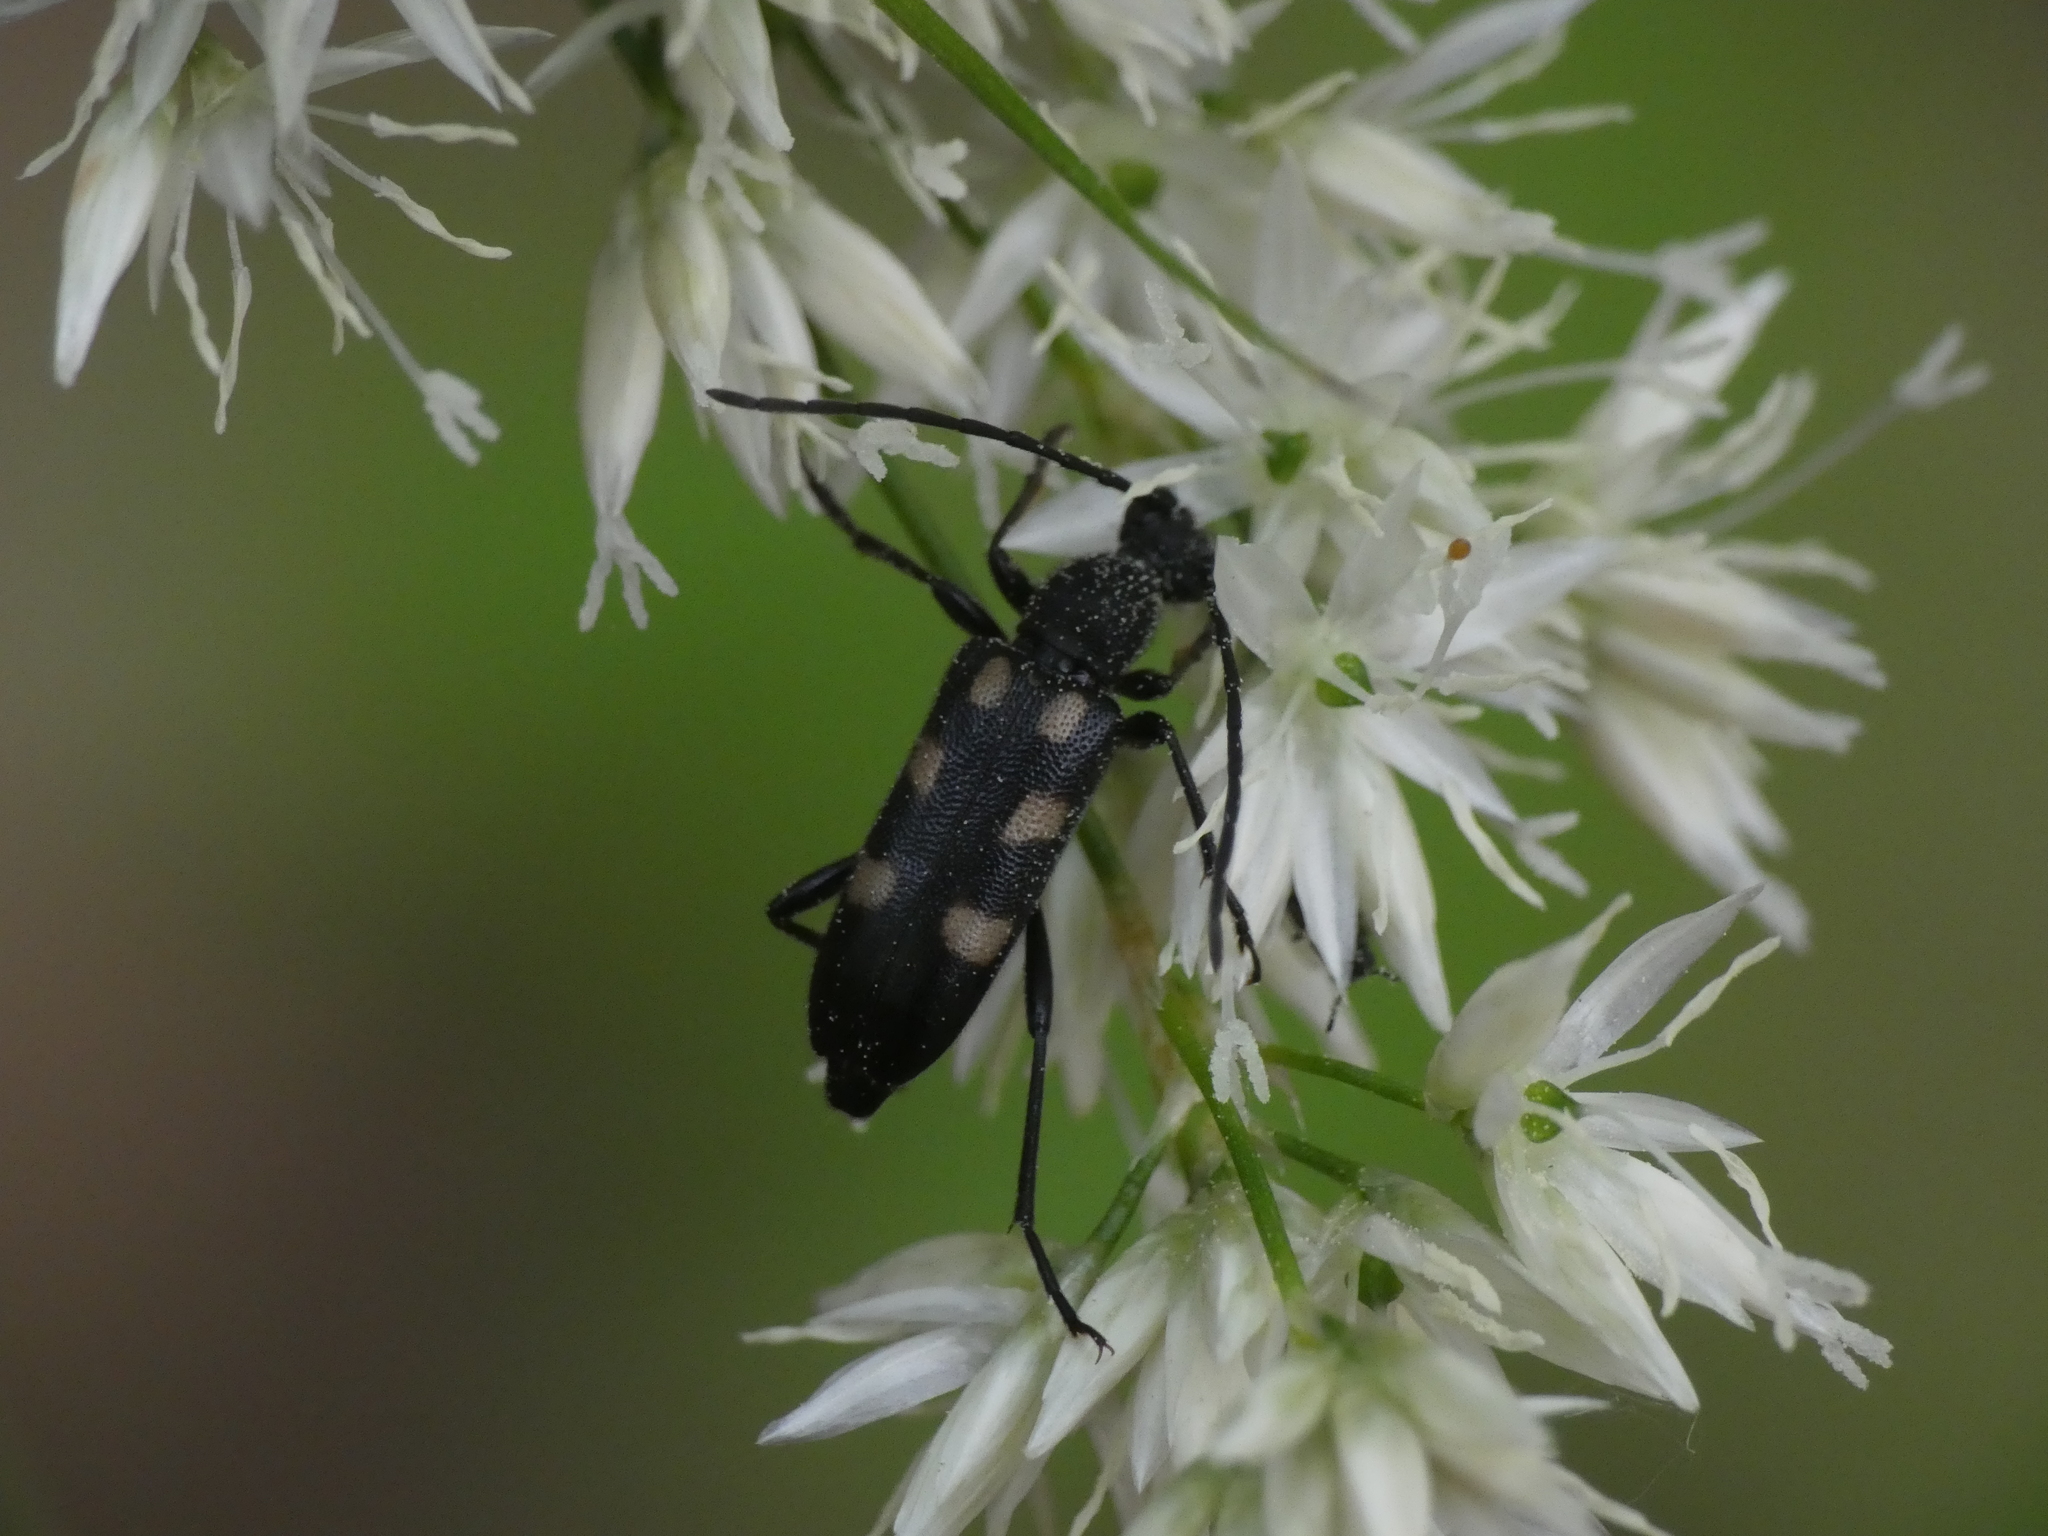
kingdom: Animalia
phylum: Arthropoda
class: Insecta
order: Coleoptera
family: Cerambycidae
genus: Anoplodera
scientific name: Anoplodera sexguttata
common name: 6 spotted longhorn
